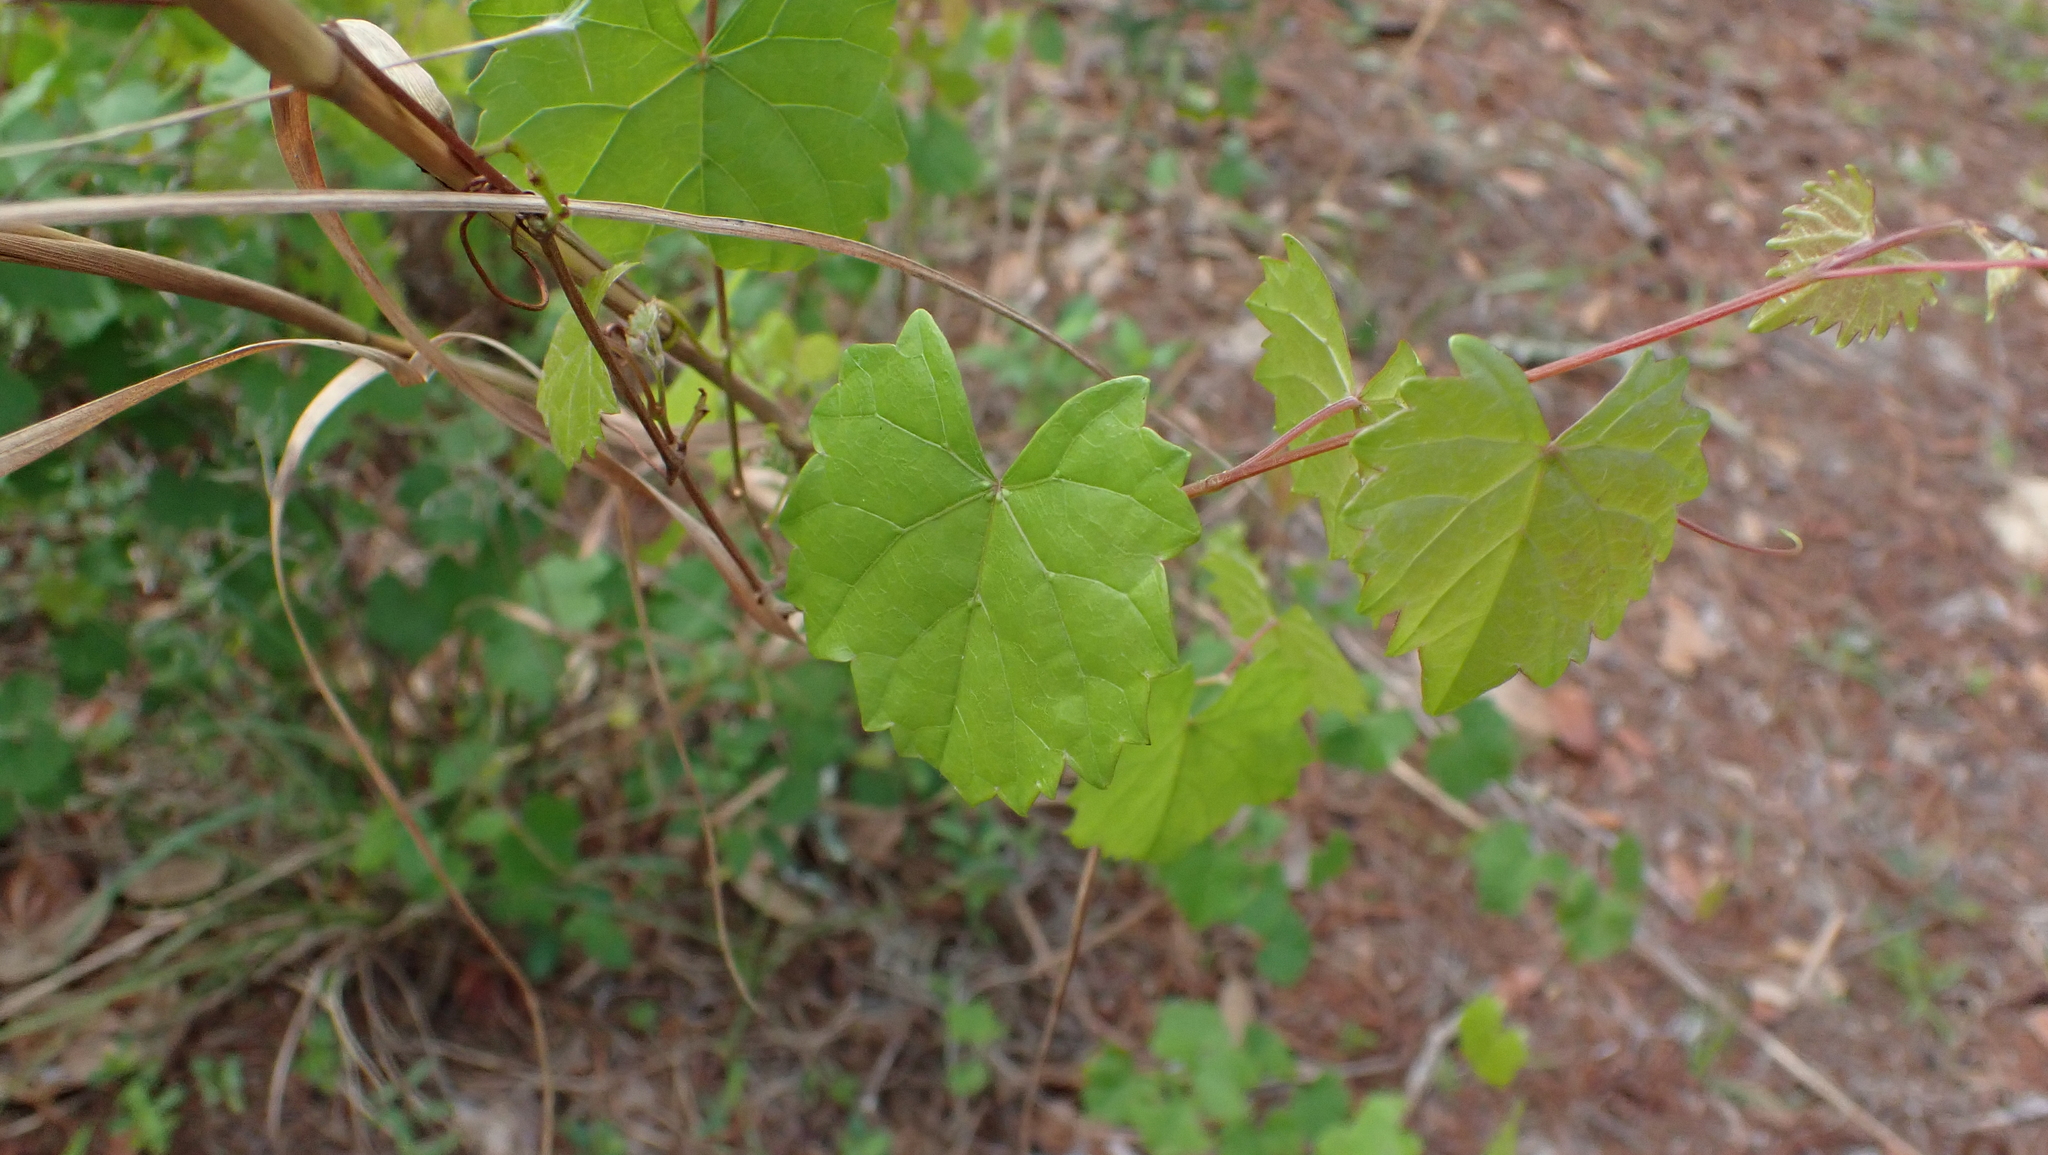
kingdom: Plantae
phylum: Tracheophyta
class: Magnoliopsida
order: Vitales
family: Vitaceae
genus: Vitis
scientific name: Vitis rotundifolia
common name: Muscadine grape
